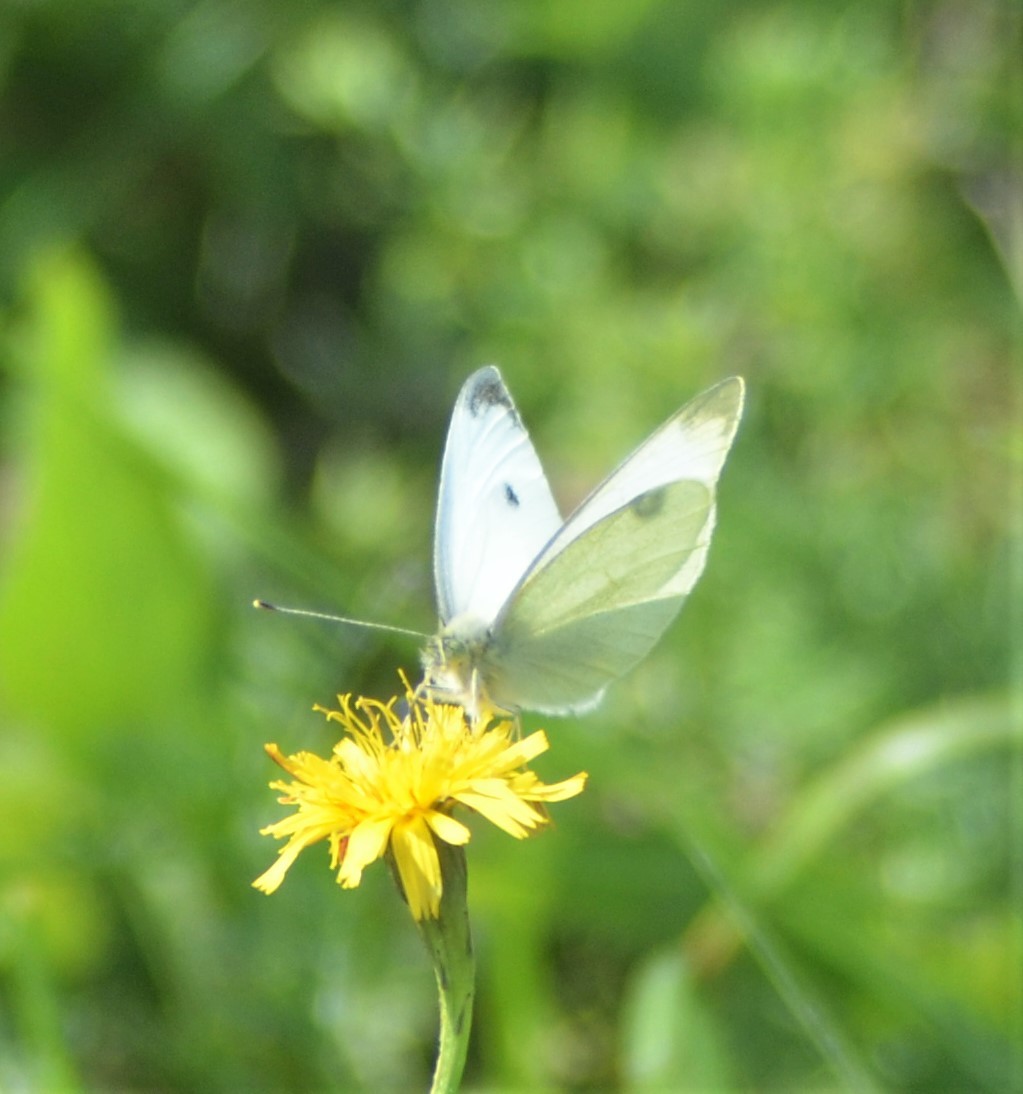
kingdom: Animalia
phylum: Arthropoda
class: Insecta
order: Lepidoptera
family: Pieridae
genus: Pieris
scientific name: Pieris rapae
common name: Small white
